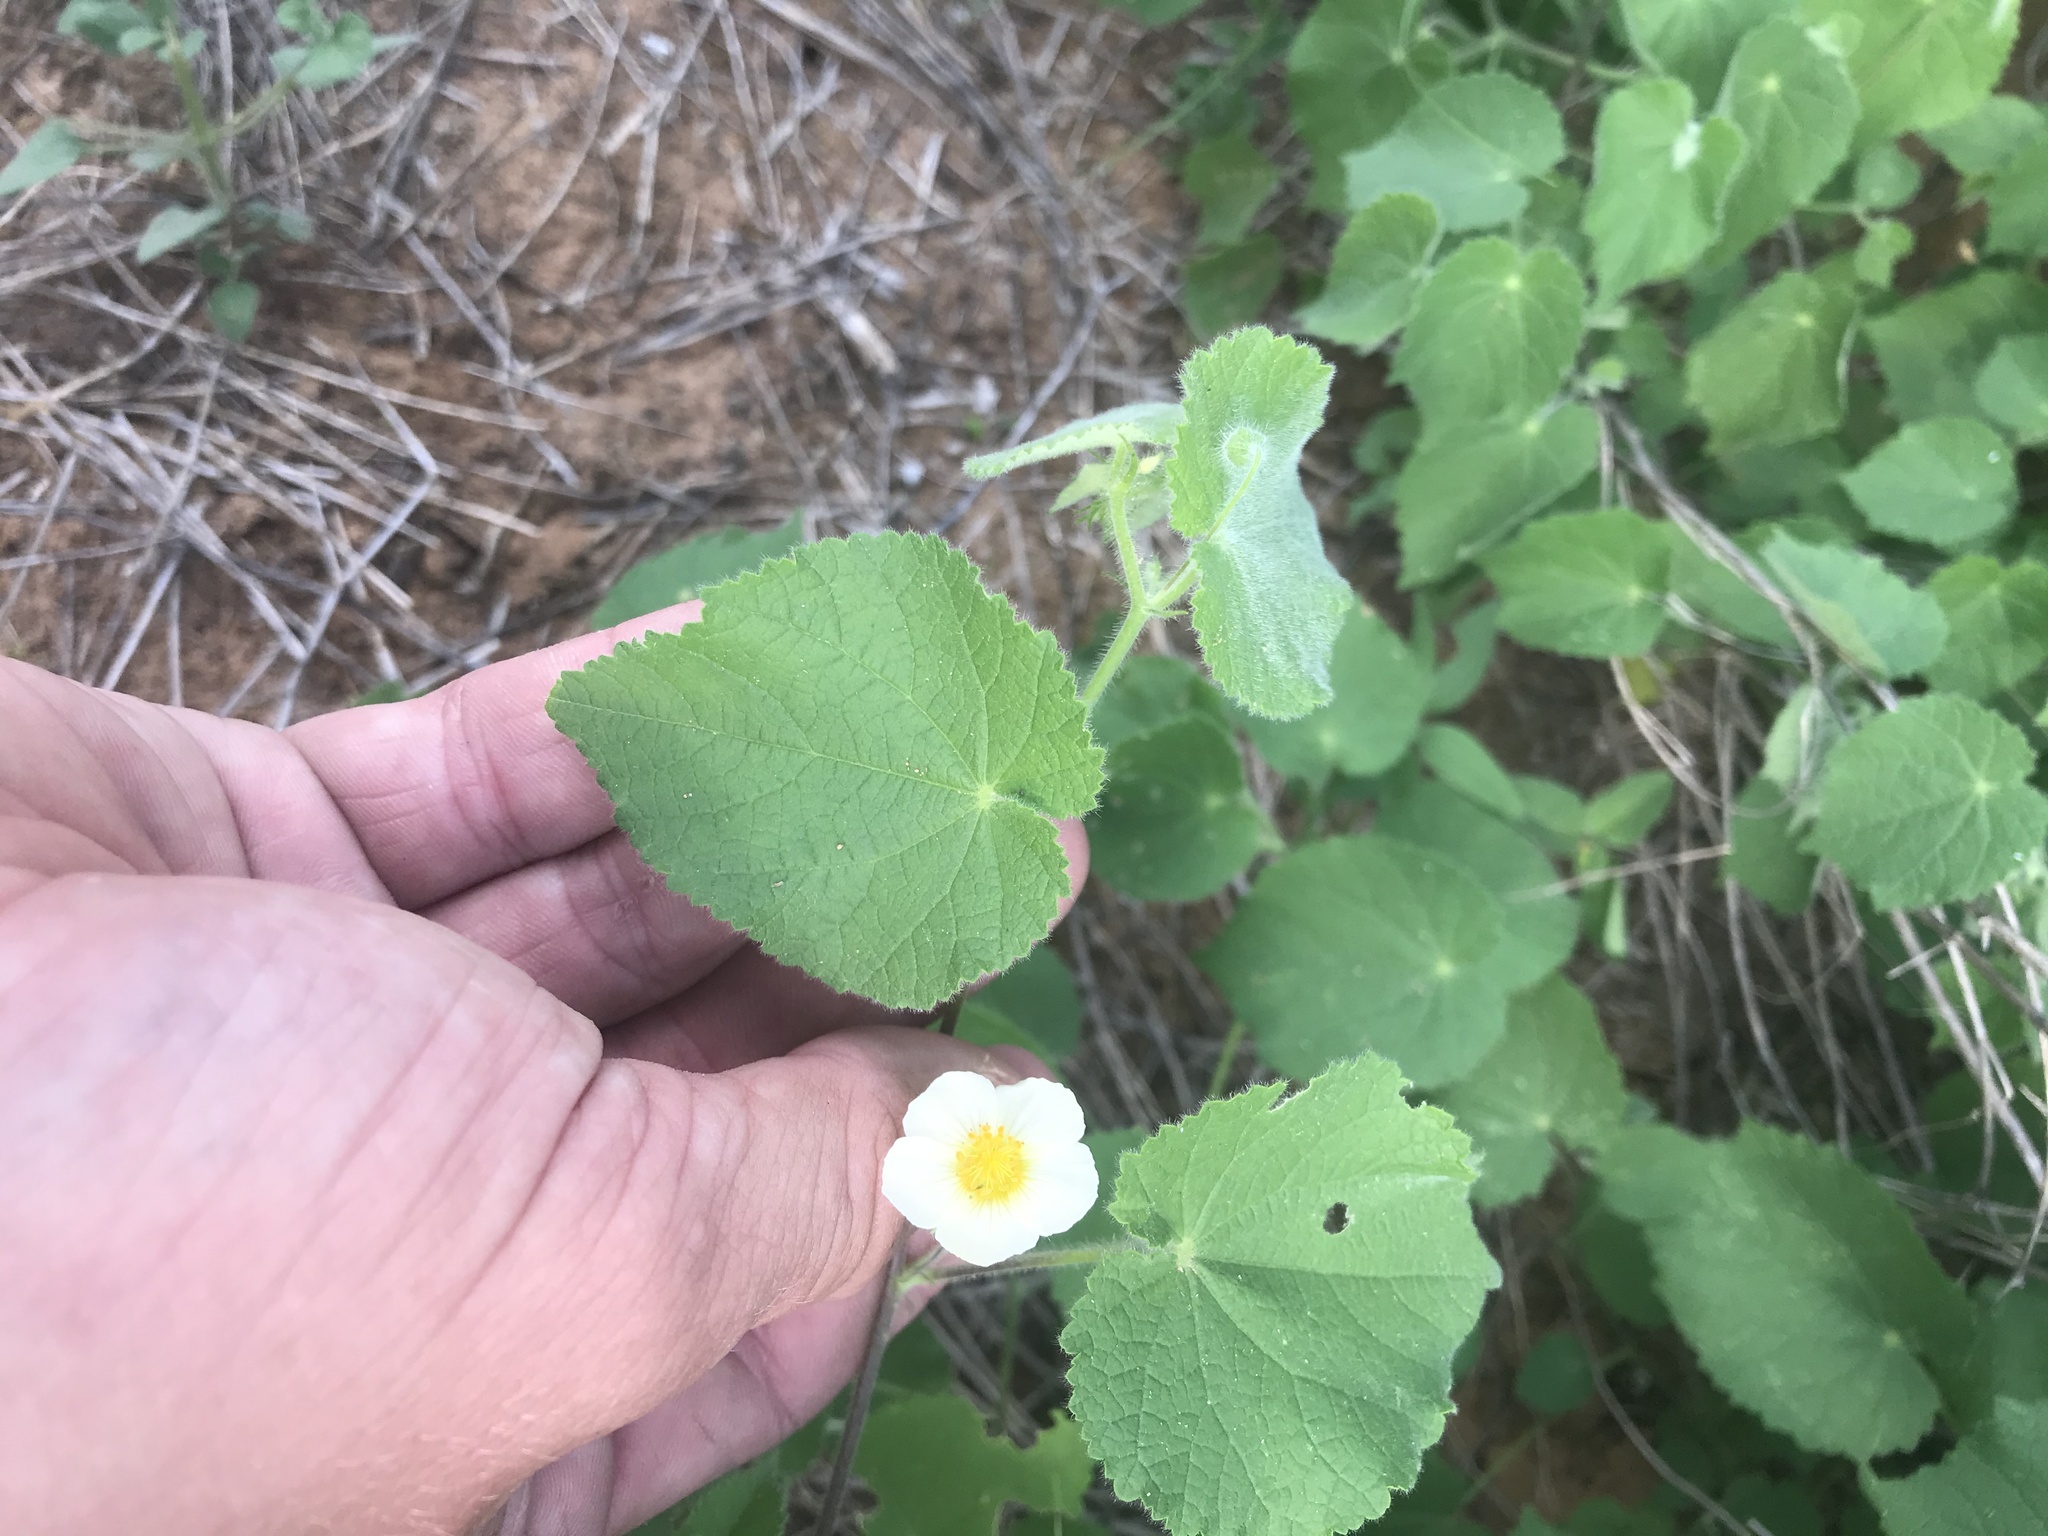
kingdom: Plantae
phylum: Tracheophyta
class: Magnoliopsida
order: Malvales
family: Malvaceae
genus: Herissantia
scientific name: Herissantia crispa
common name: Bladdermallow
